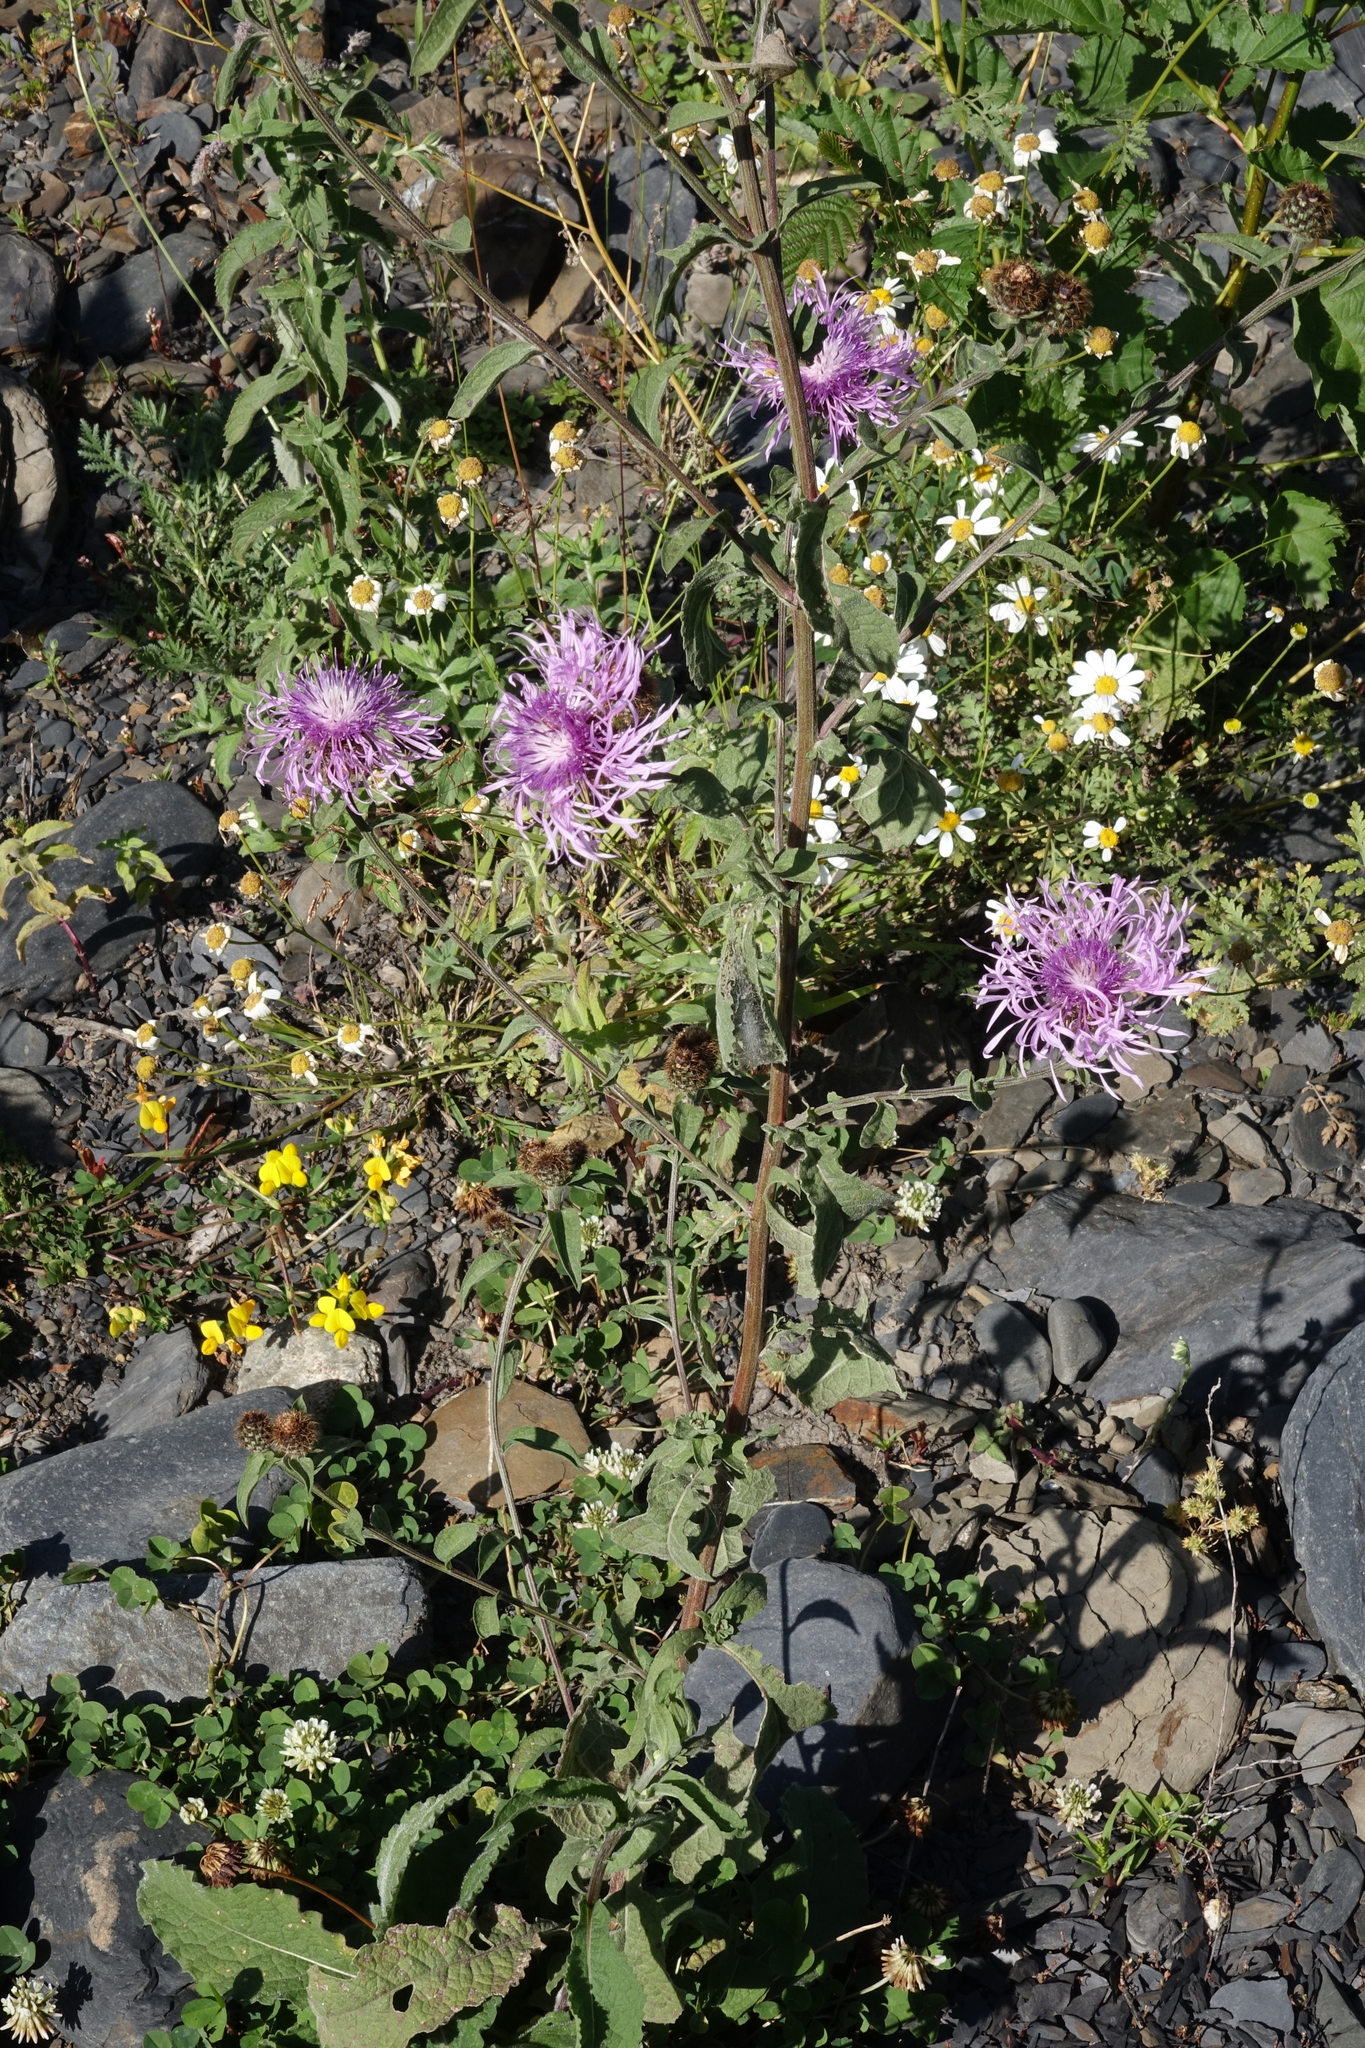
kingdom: Plantae
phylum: Tracheophyta
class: Magnoliopsida
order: Asterales
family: Asteraceae
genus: Centaurea
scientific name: Centaurea phrygia
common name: Wig knapweed
